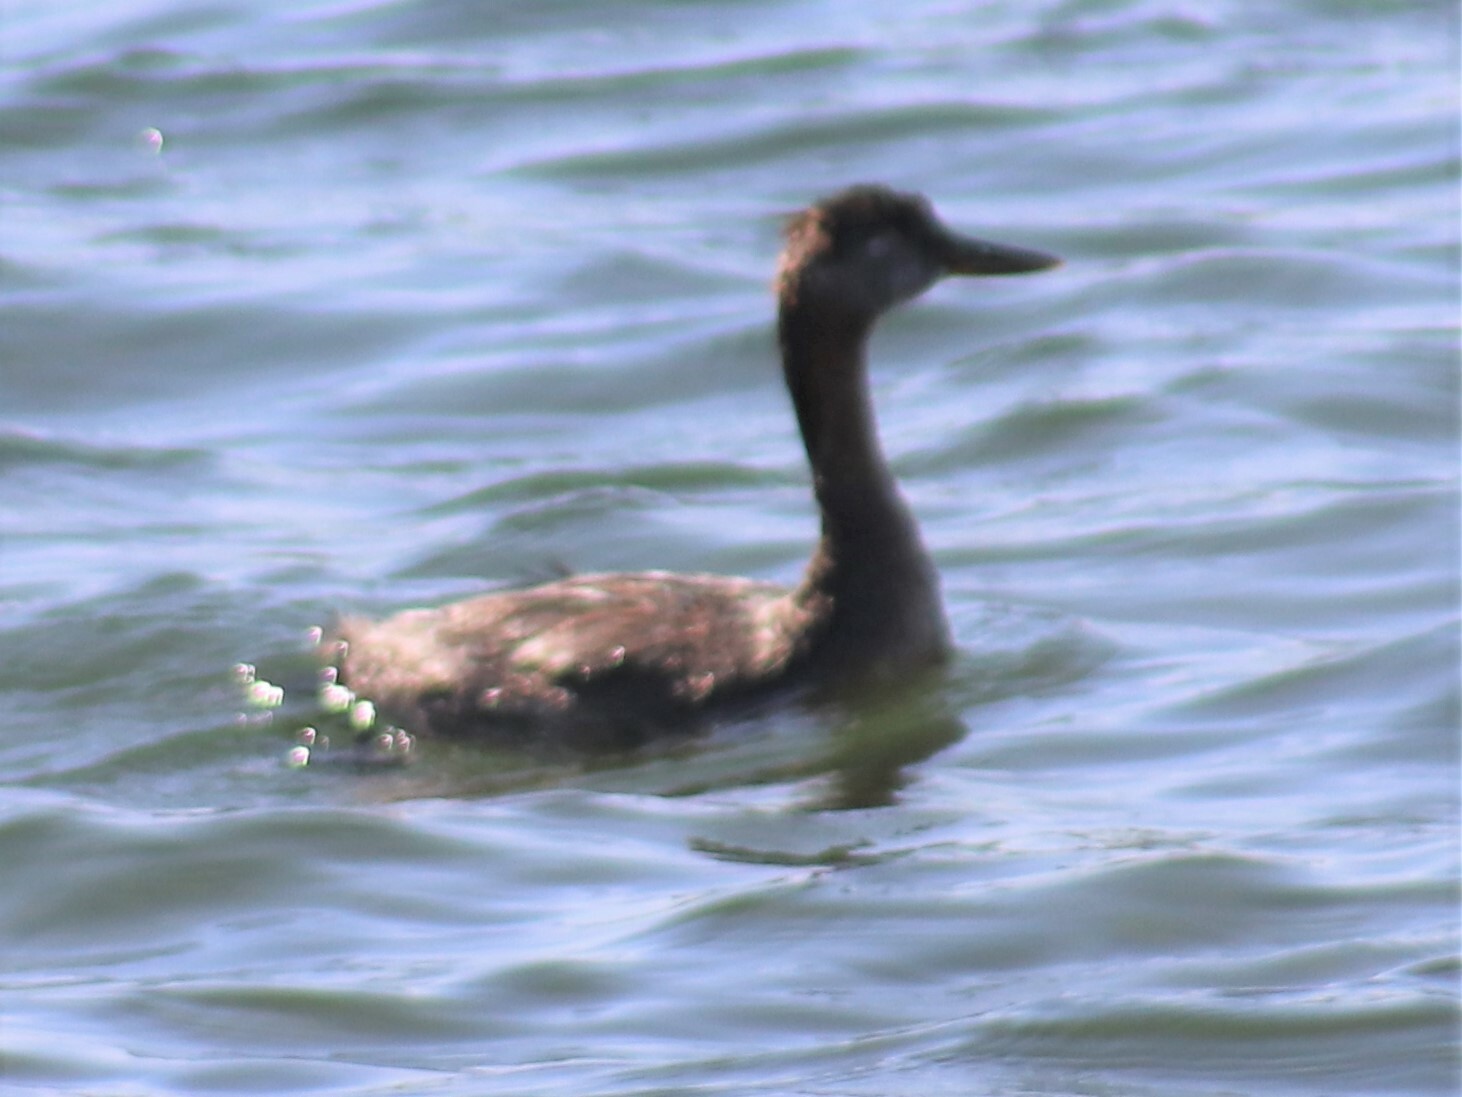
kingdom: Animalia
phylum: Chordata
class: Aves
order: Podicipediformes
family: Podicipedidae
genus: Podiceps
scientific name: Podiceps grisegena
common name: Red-necked grebe
